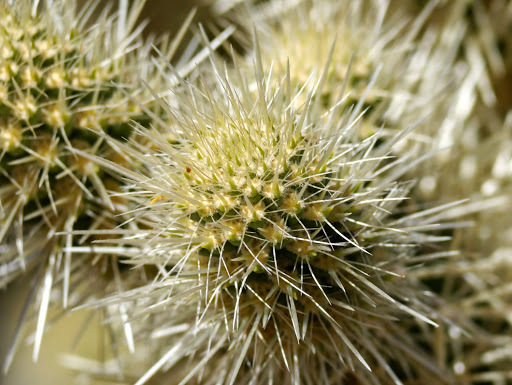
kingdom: Plantae
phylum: Tracheophyta
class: Magnoliopsida
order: Caryophyllales
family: Cactaceae
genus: Cylindropuntia
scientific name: Cylindropuntia fosbergii
